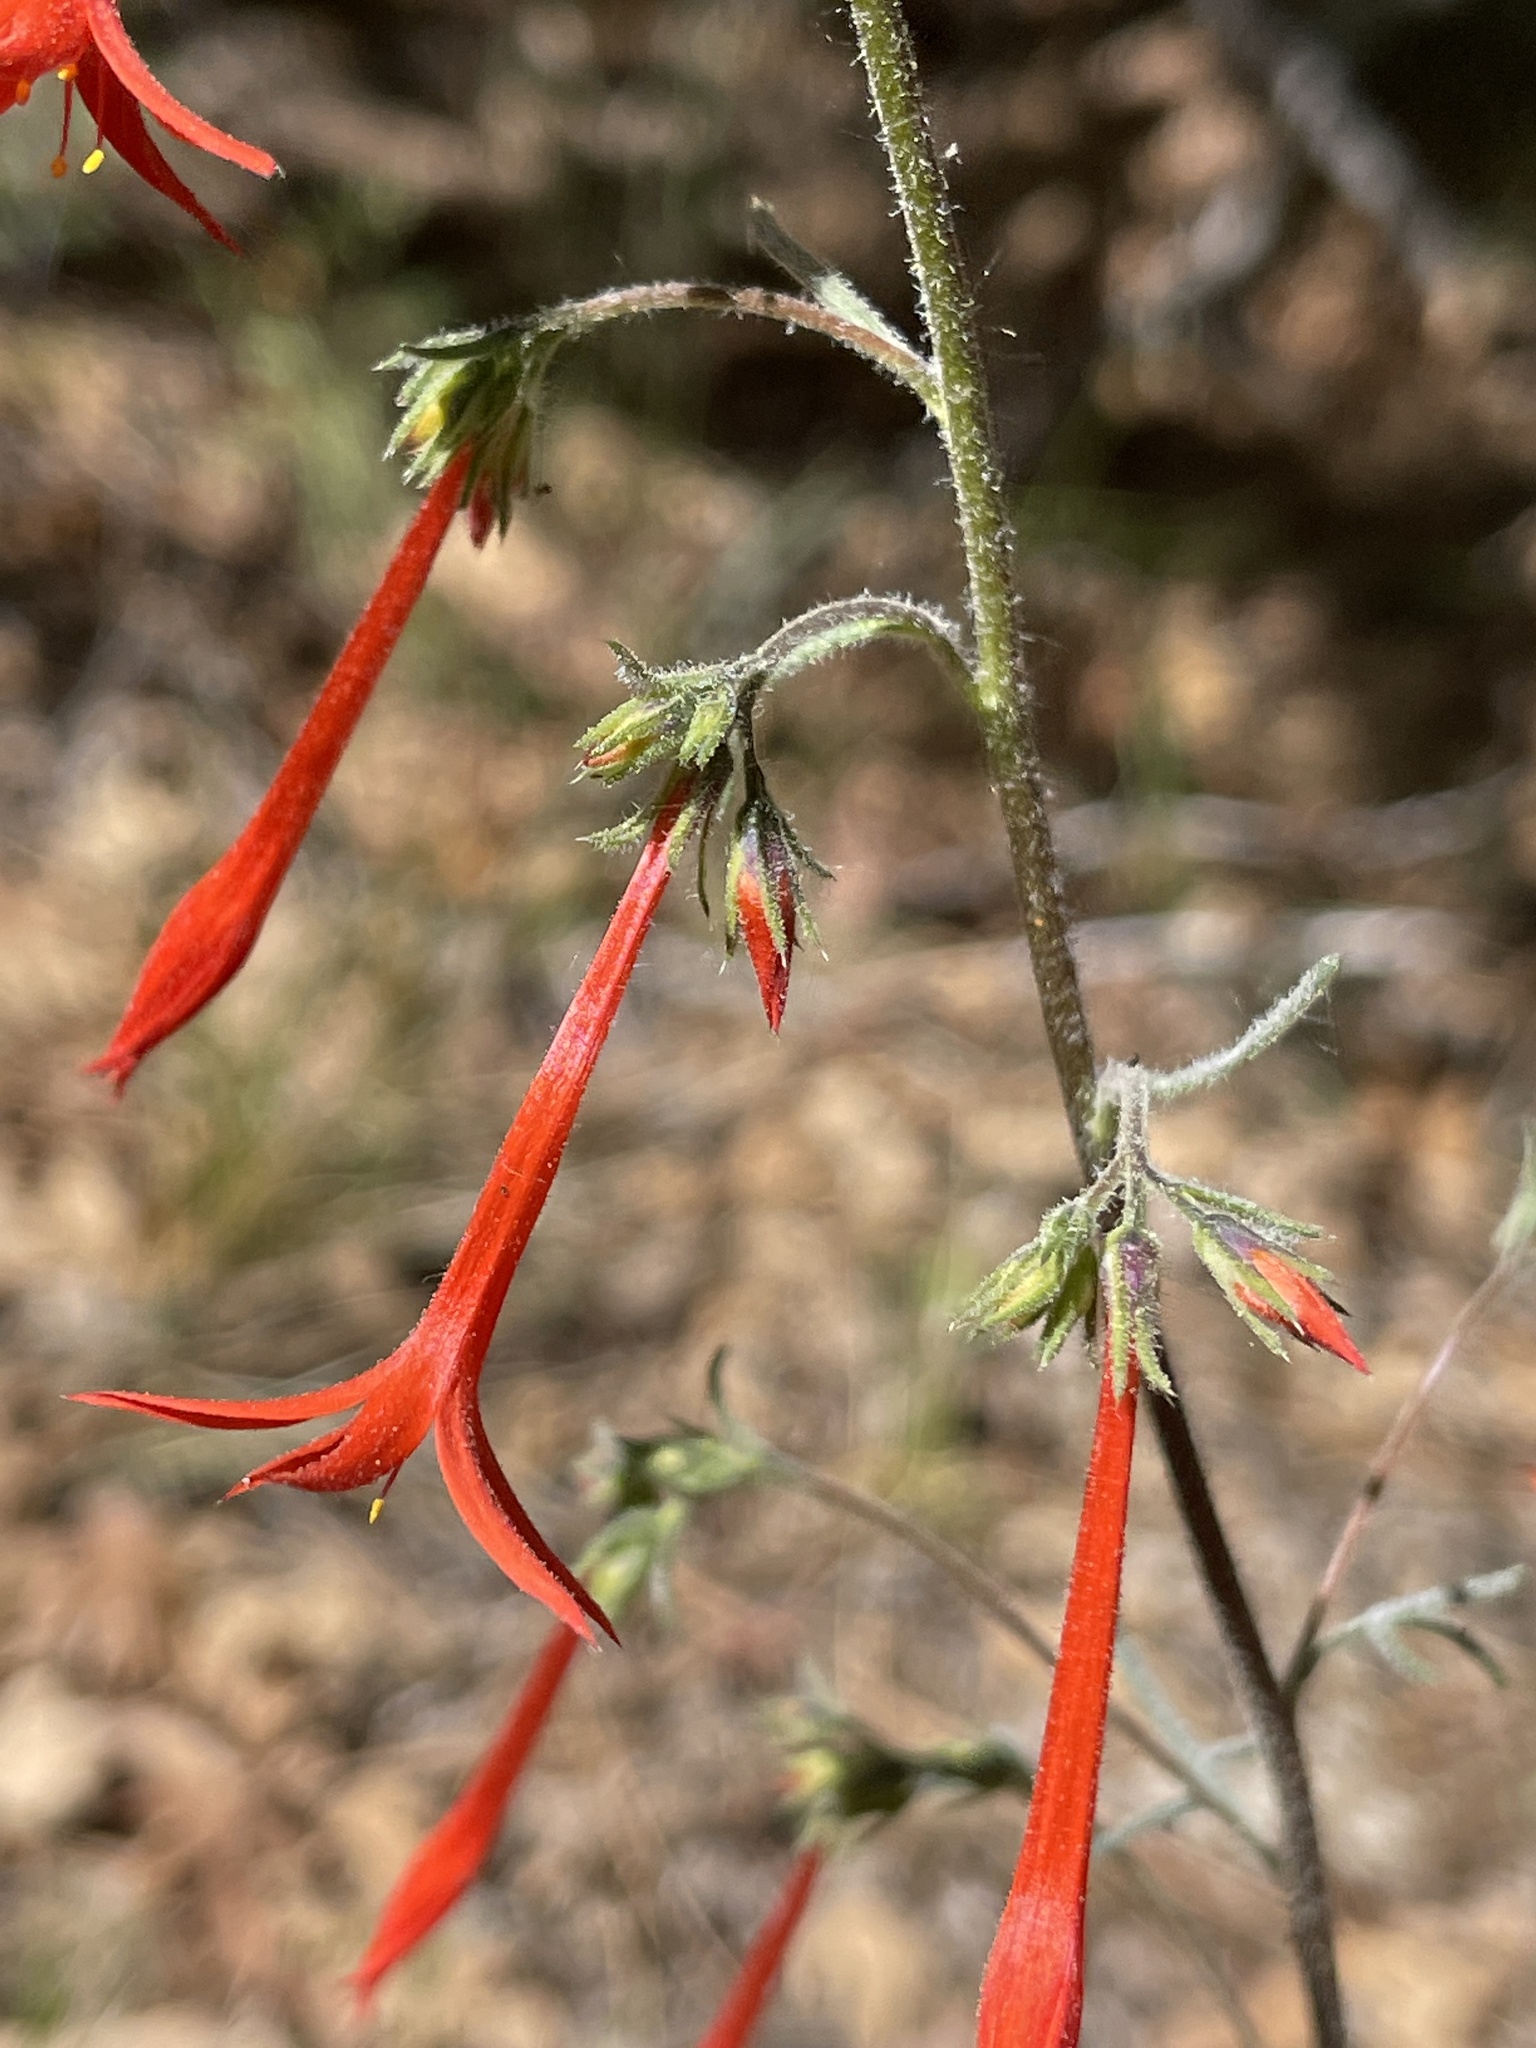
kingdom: Plantae
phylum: Tracheophyta
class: Magnoliopsida
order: Ericales
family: Polemoniaceae
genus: Ipomopsis
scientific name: Ipomopsis aggregata
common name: Scarlet gilia
